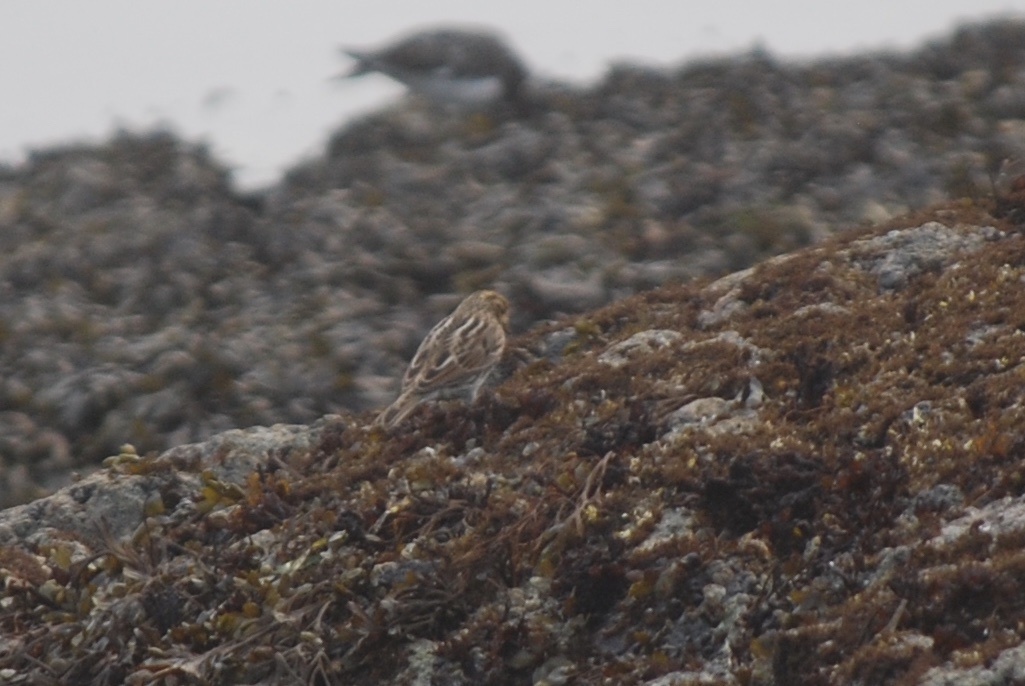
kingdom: Animalia
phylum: Chordata
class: Aves
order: Passeriformes
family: Passerellidae
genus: Passerculus
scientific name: Passerculus sandwichensis
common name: Savannah sparrow
